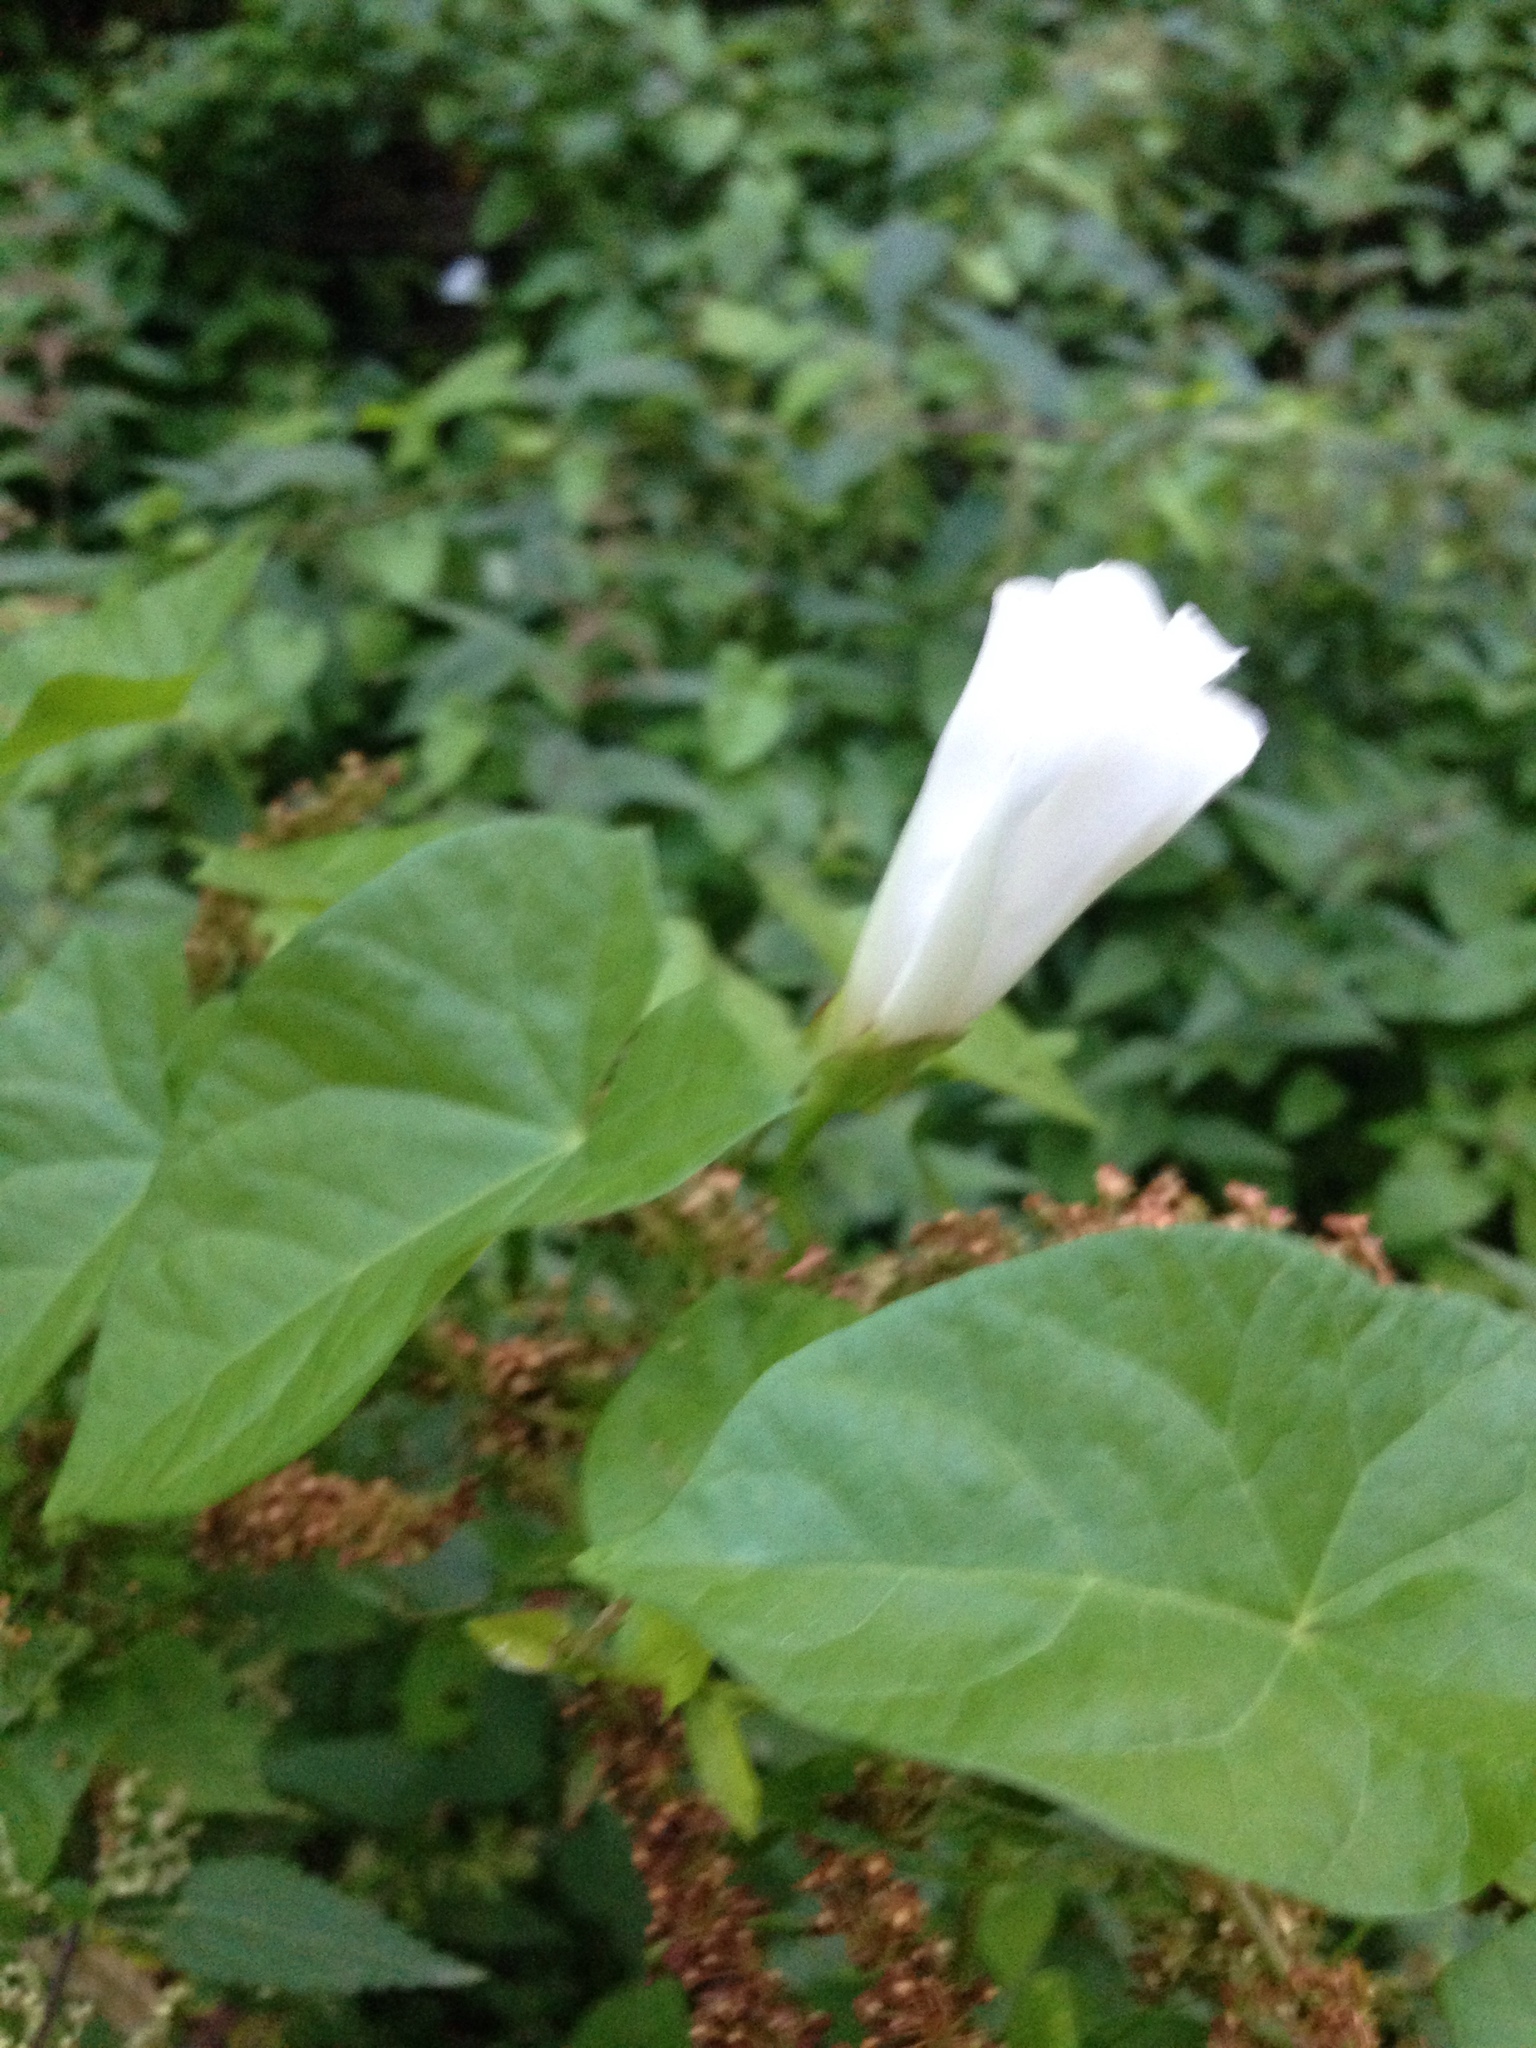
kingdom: Plantae
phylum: Tracheophyta
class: Magnoliopsida
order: Solanales
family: Convolvulaceae
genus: Calystegia
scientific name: Calystegia sepium
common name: Hedge bindweed
